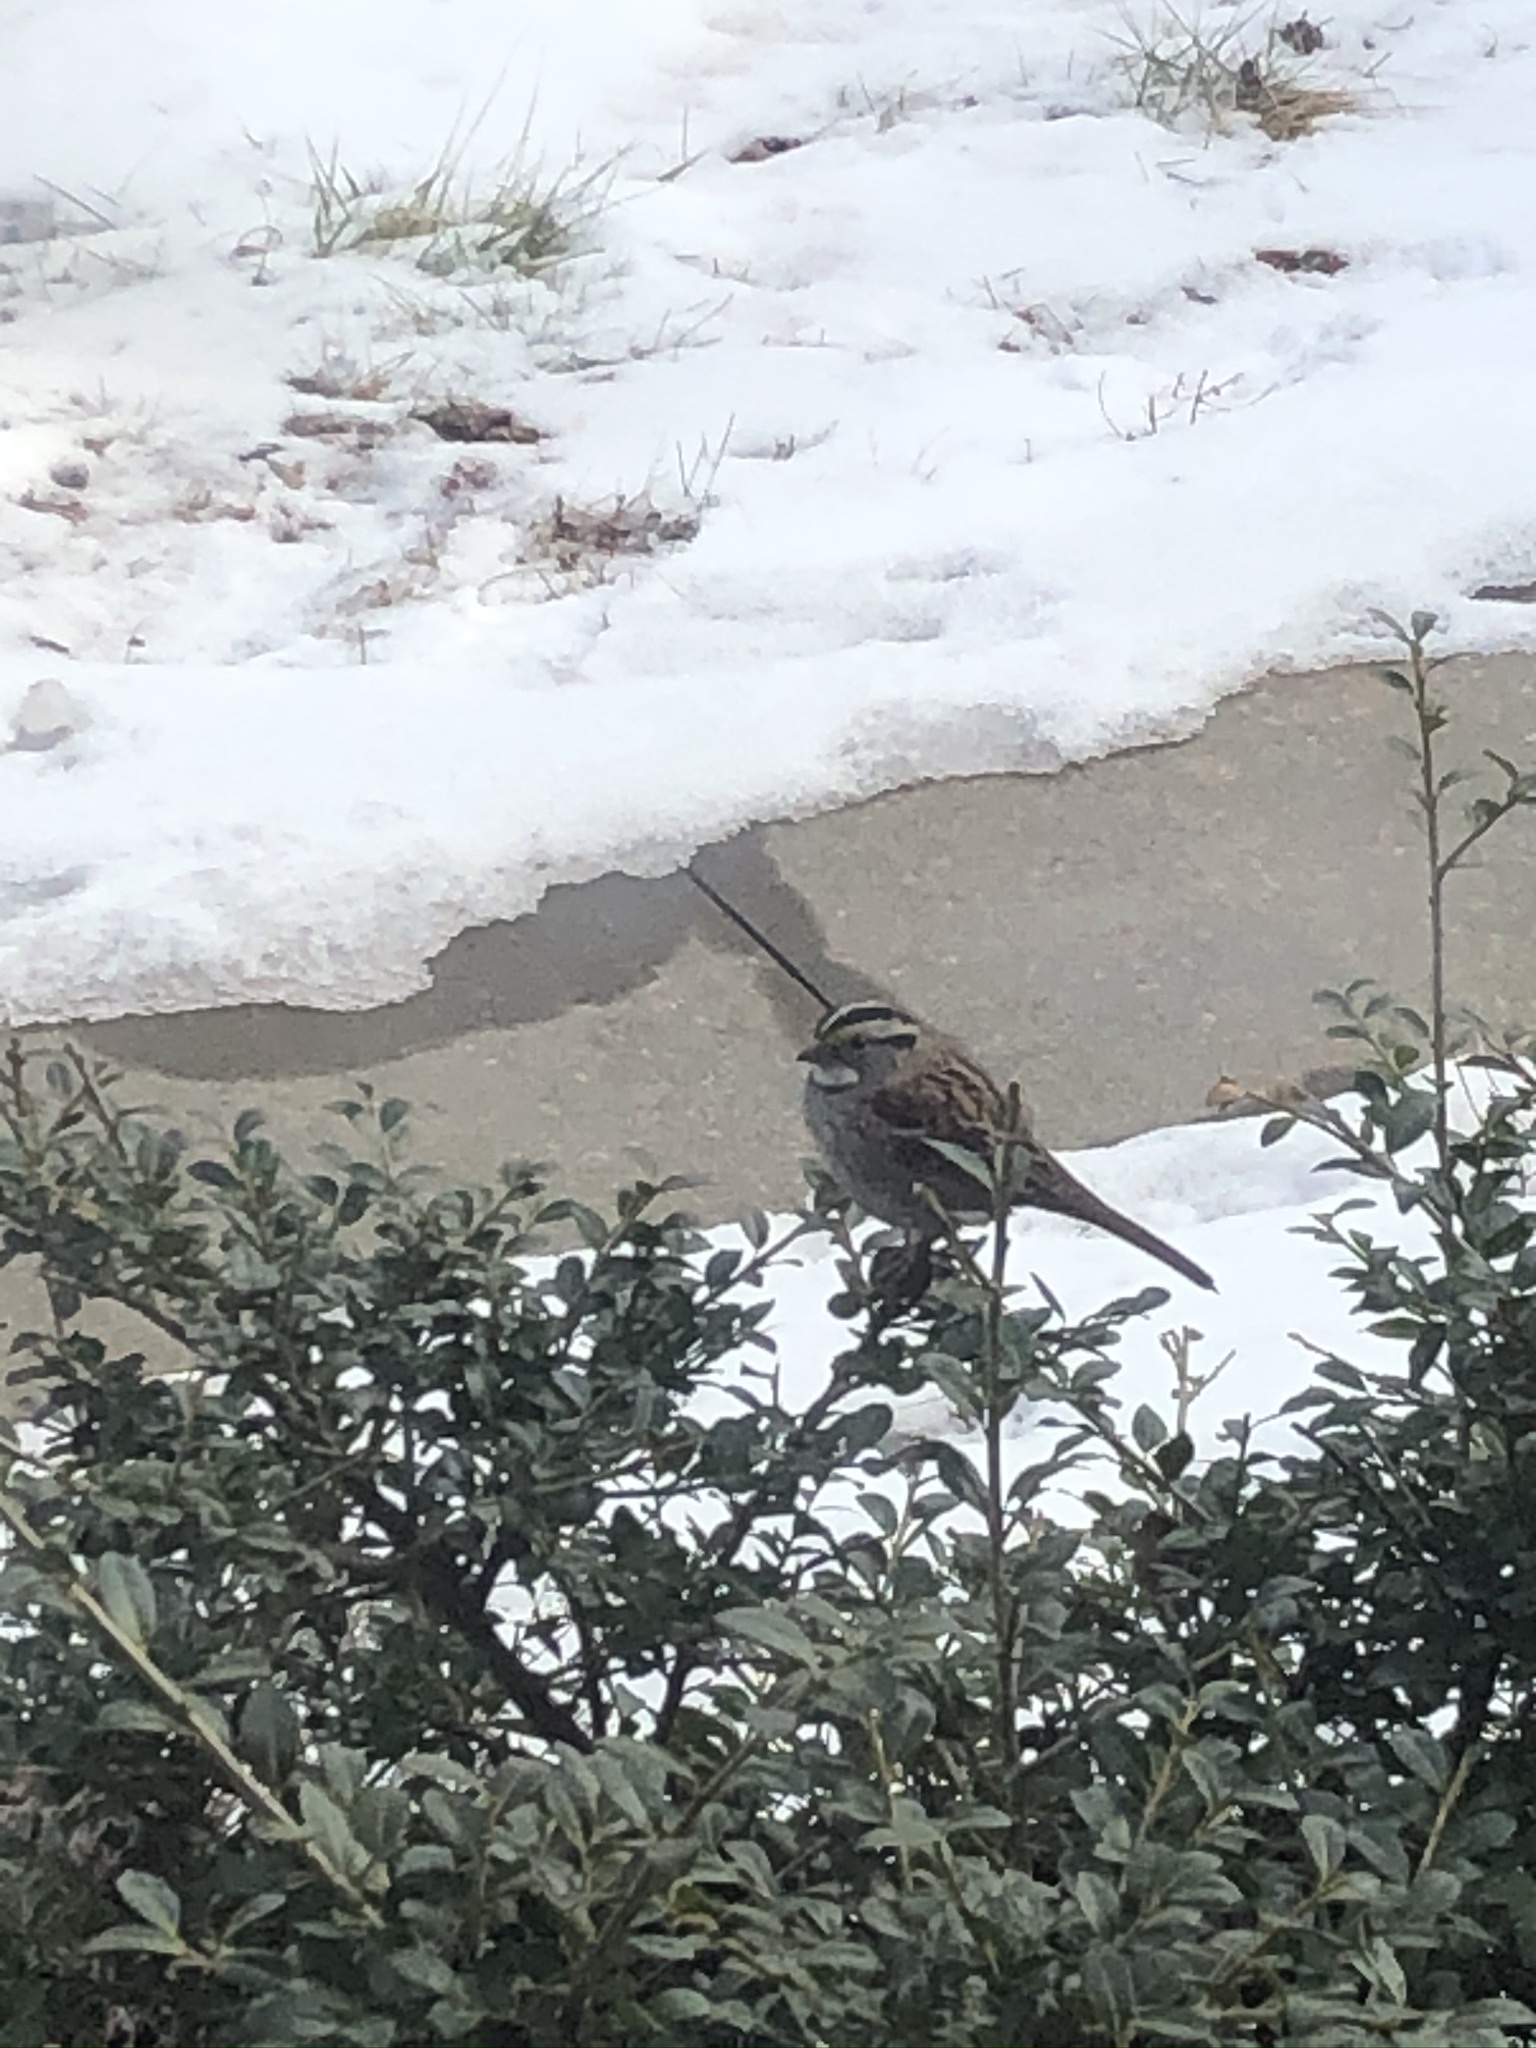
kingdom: Animalia
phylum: Chordata
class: Aves
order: Passeriformes
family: Passerellidae
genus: Zonotrichia
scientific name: Zonotrichia albicollis
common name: White-throated sparrow
